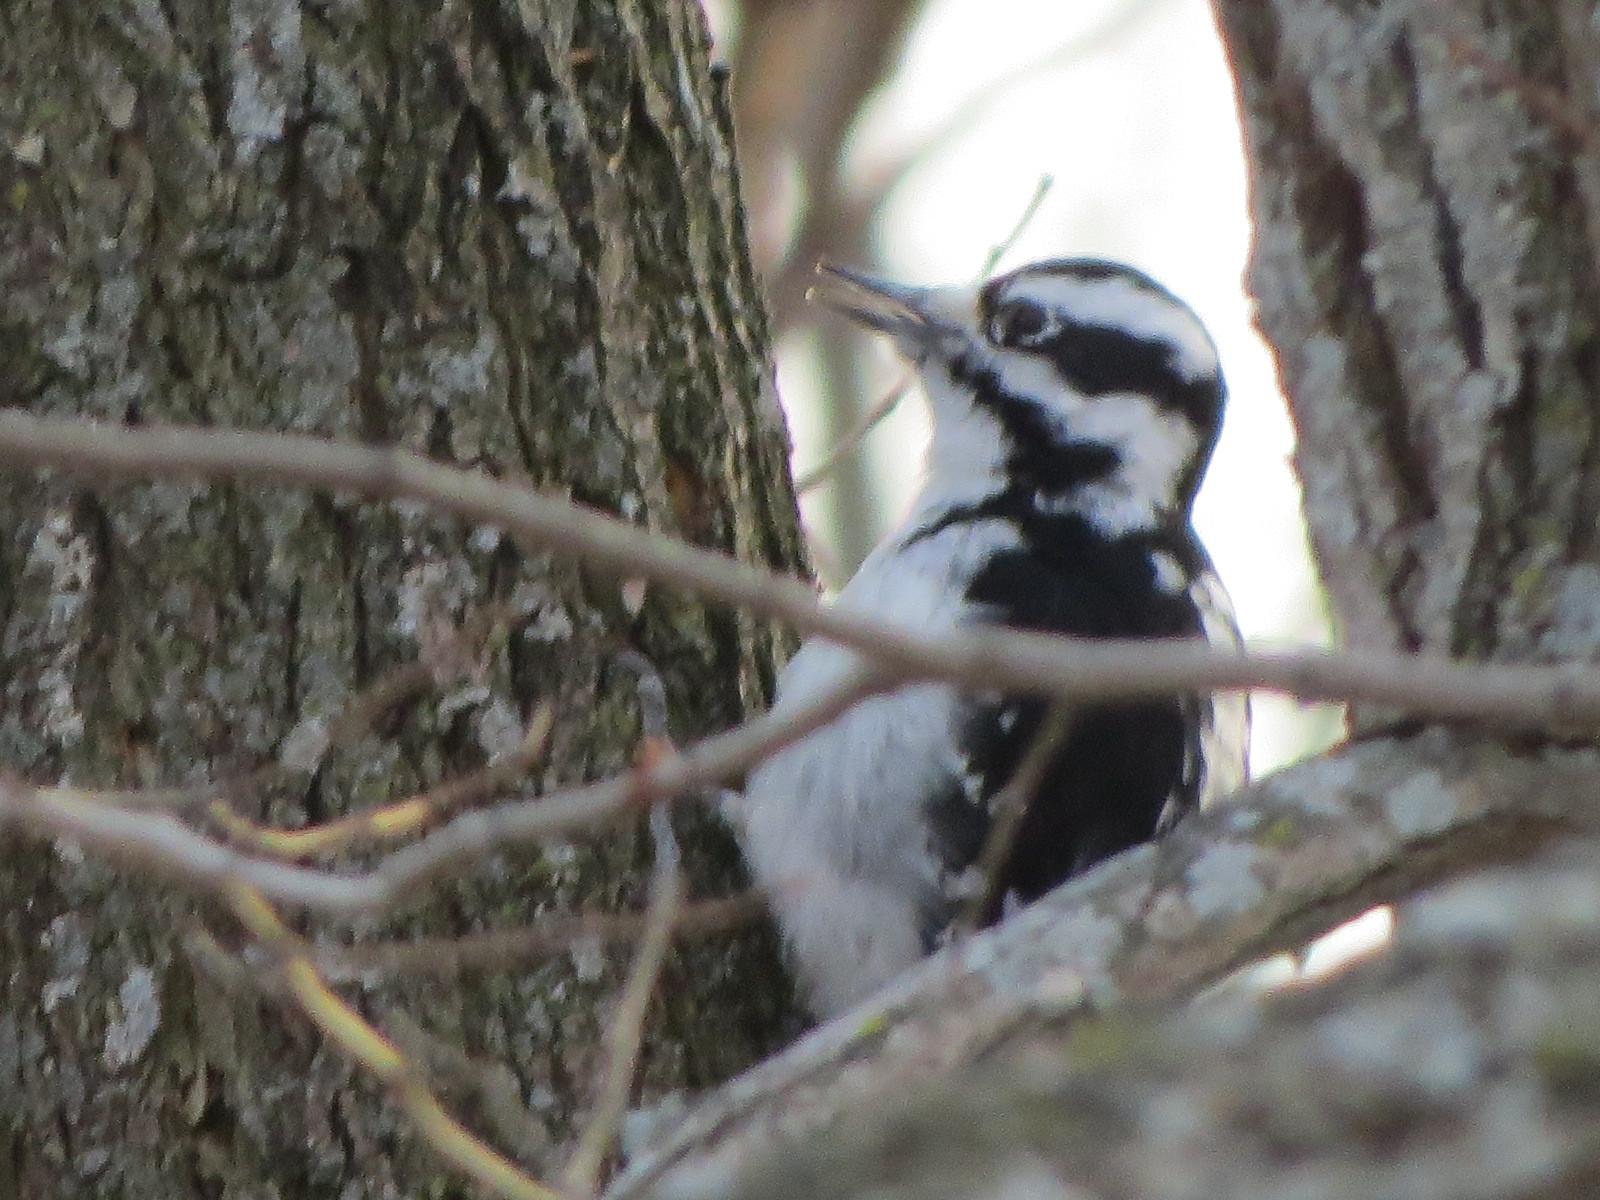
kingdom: Animalia
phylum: Chordata
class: Aves
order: Piciformes
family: Picidae
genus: Dryobates
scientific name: Dryobates pubescens
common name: Downy woodpecker
